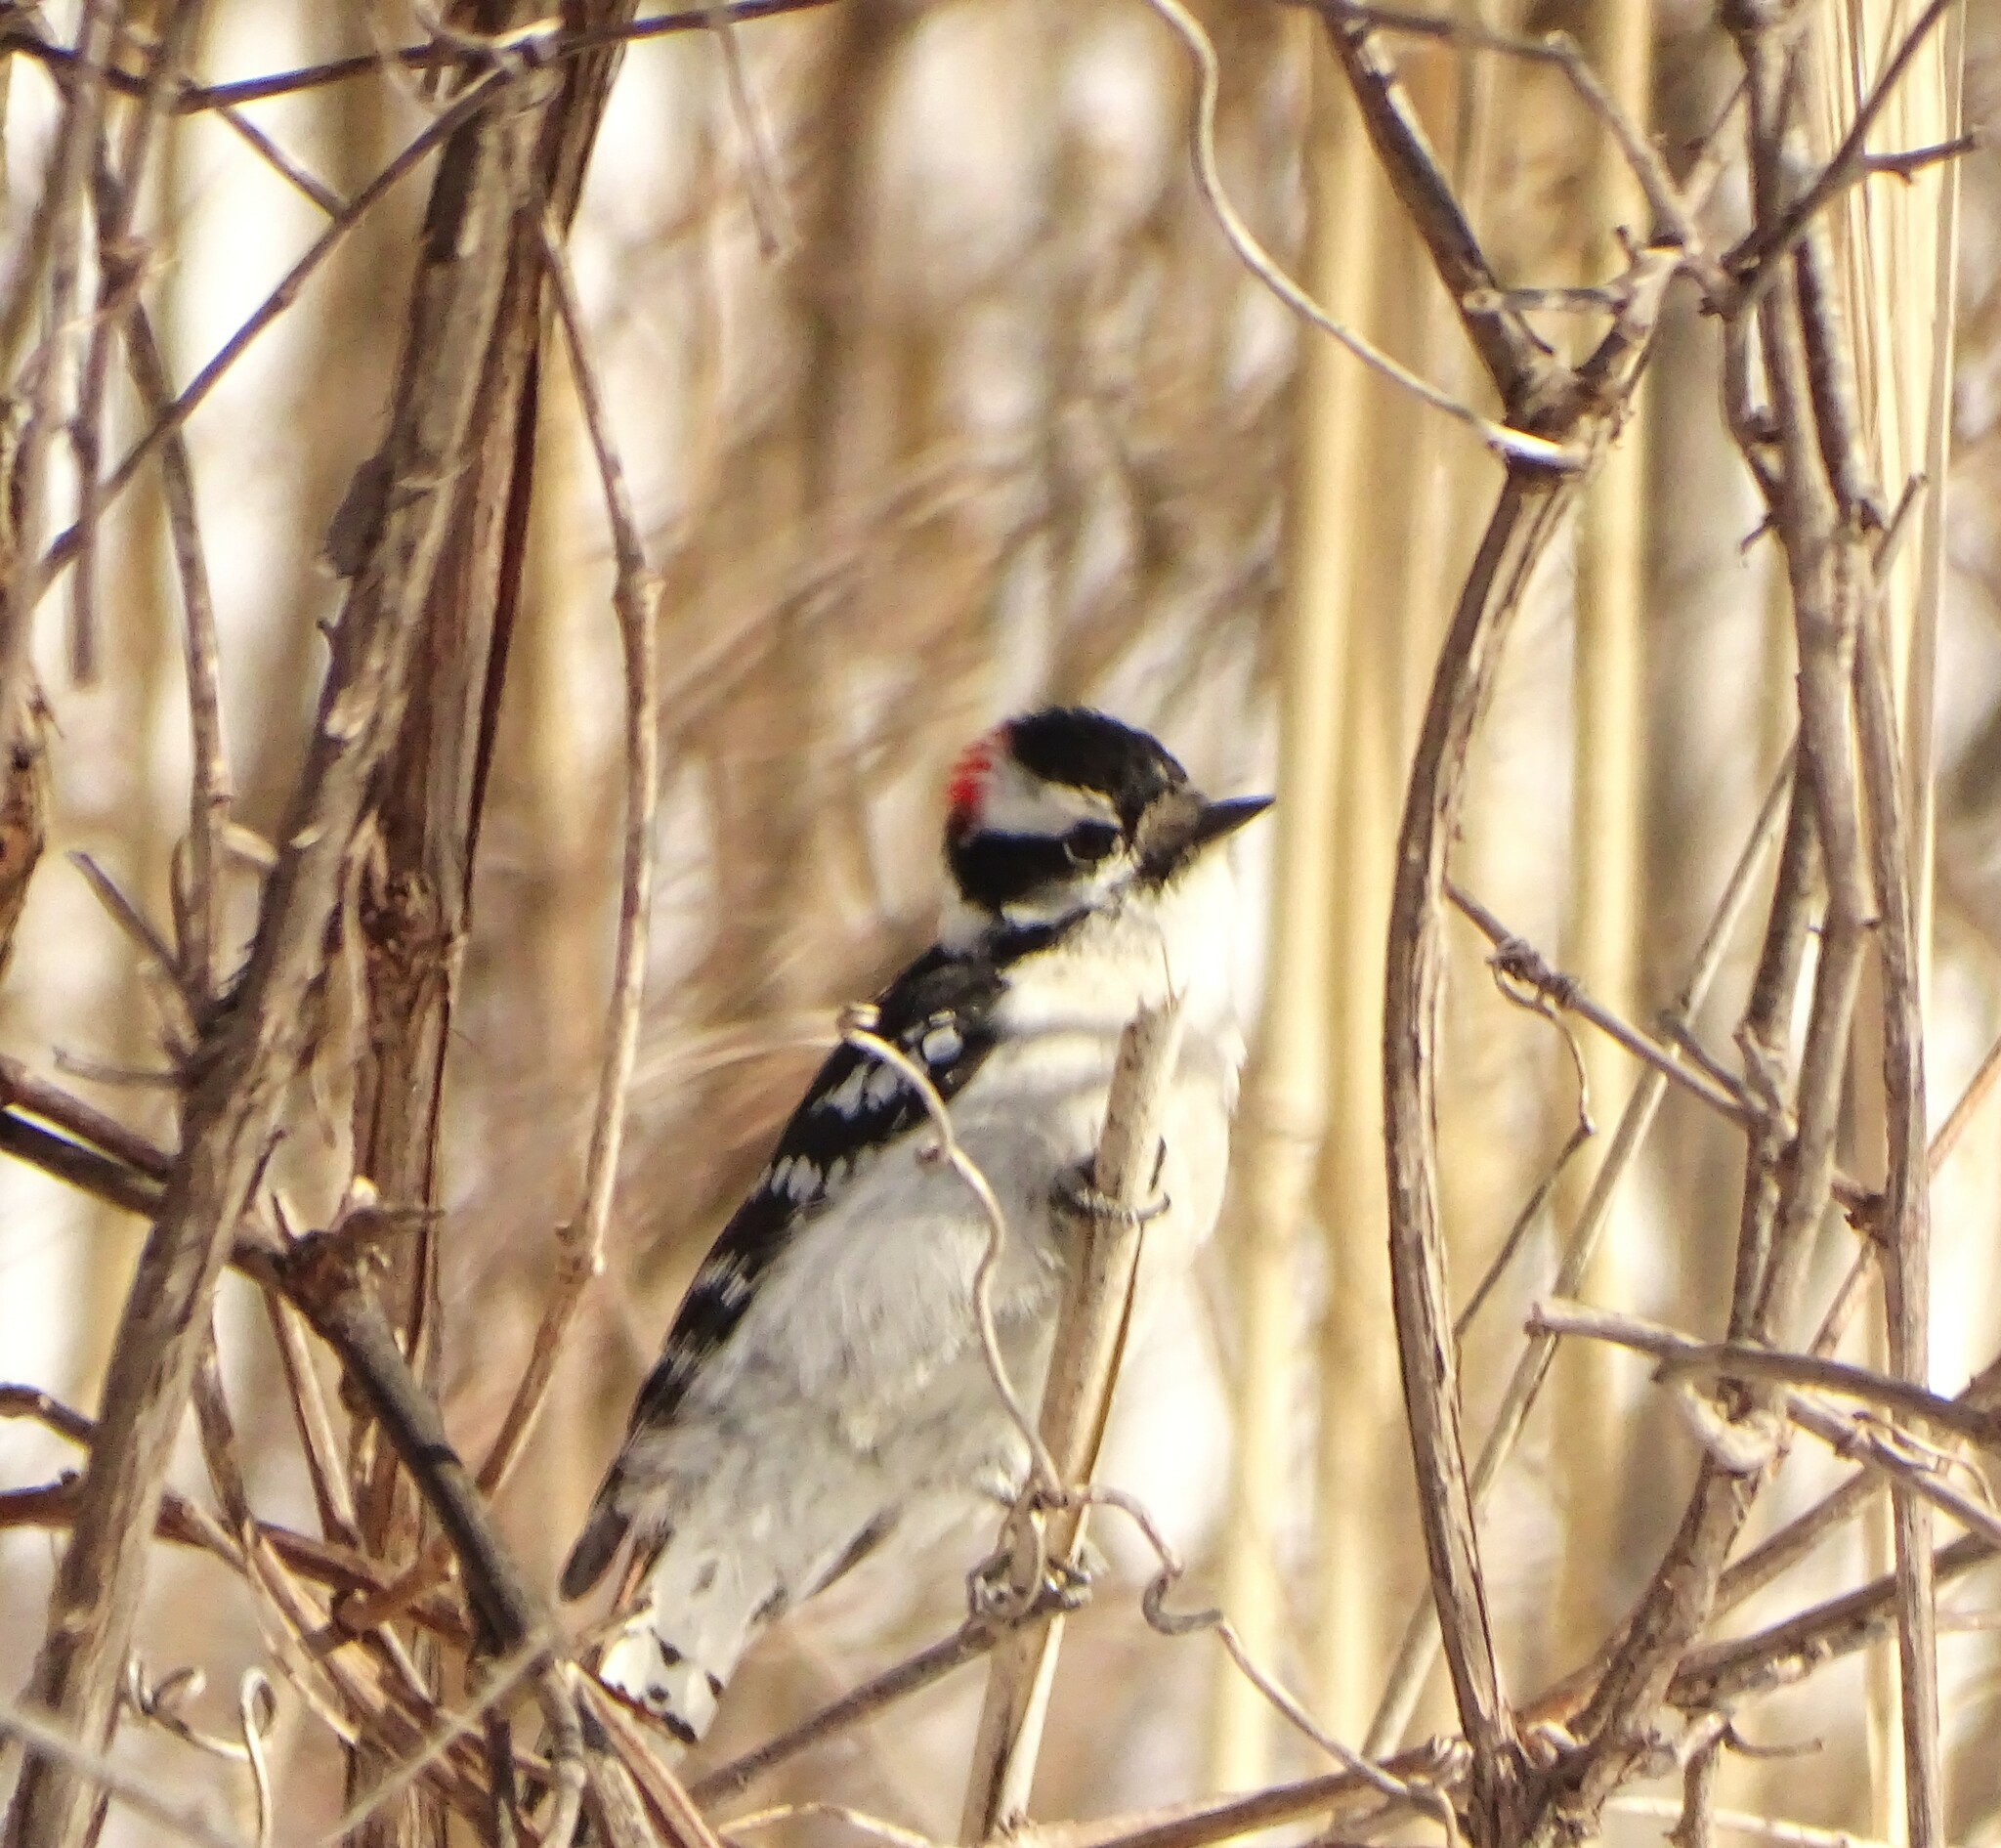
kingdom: Animalia
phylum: Chordata
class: Aves
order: Piciformes
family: Picidae
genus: Dryobates
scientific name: Dryobates pubescens
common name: Downy woodpecker
